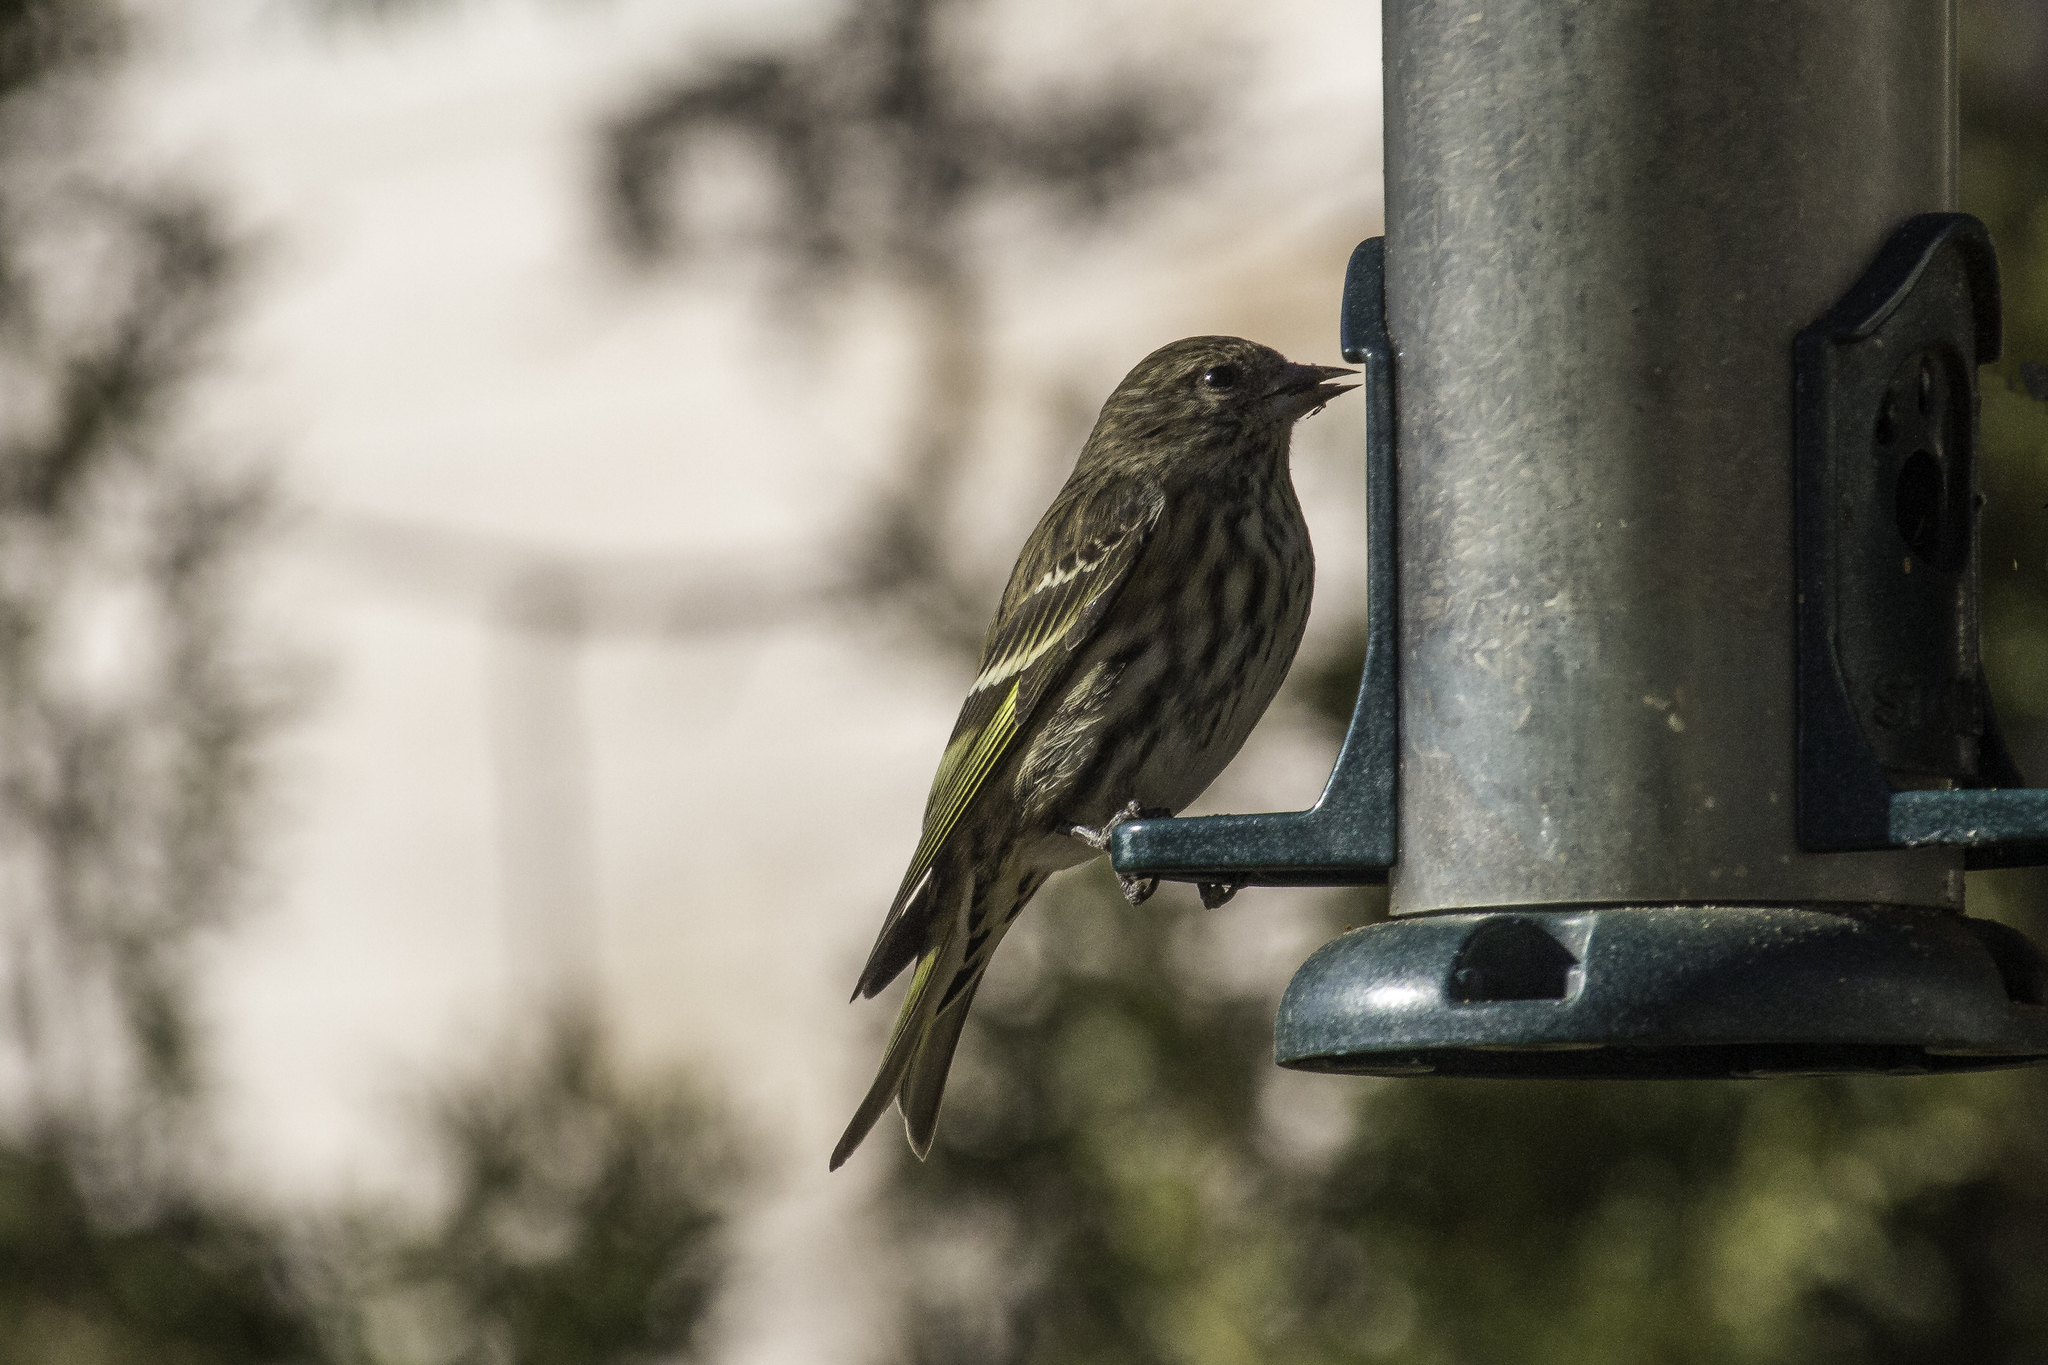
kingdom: Animalia
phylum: Chordata
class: Aves
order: Passeriformes
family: Fringillidae
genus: Spinus
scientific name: Spinus pinus
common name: Pine siskin
